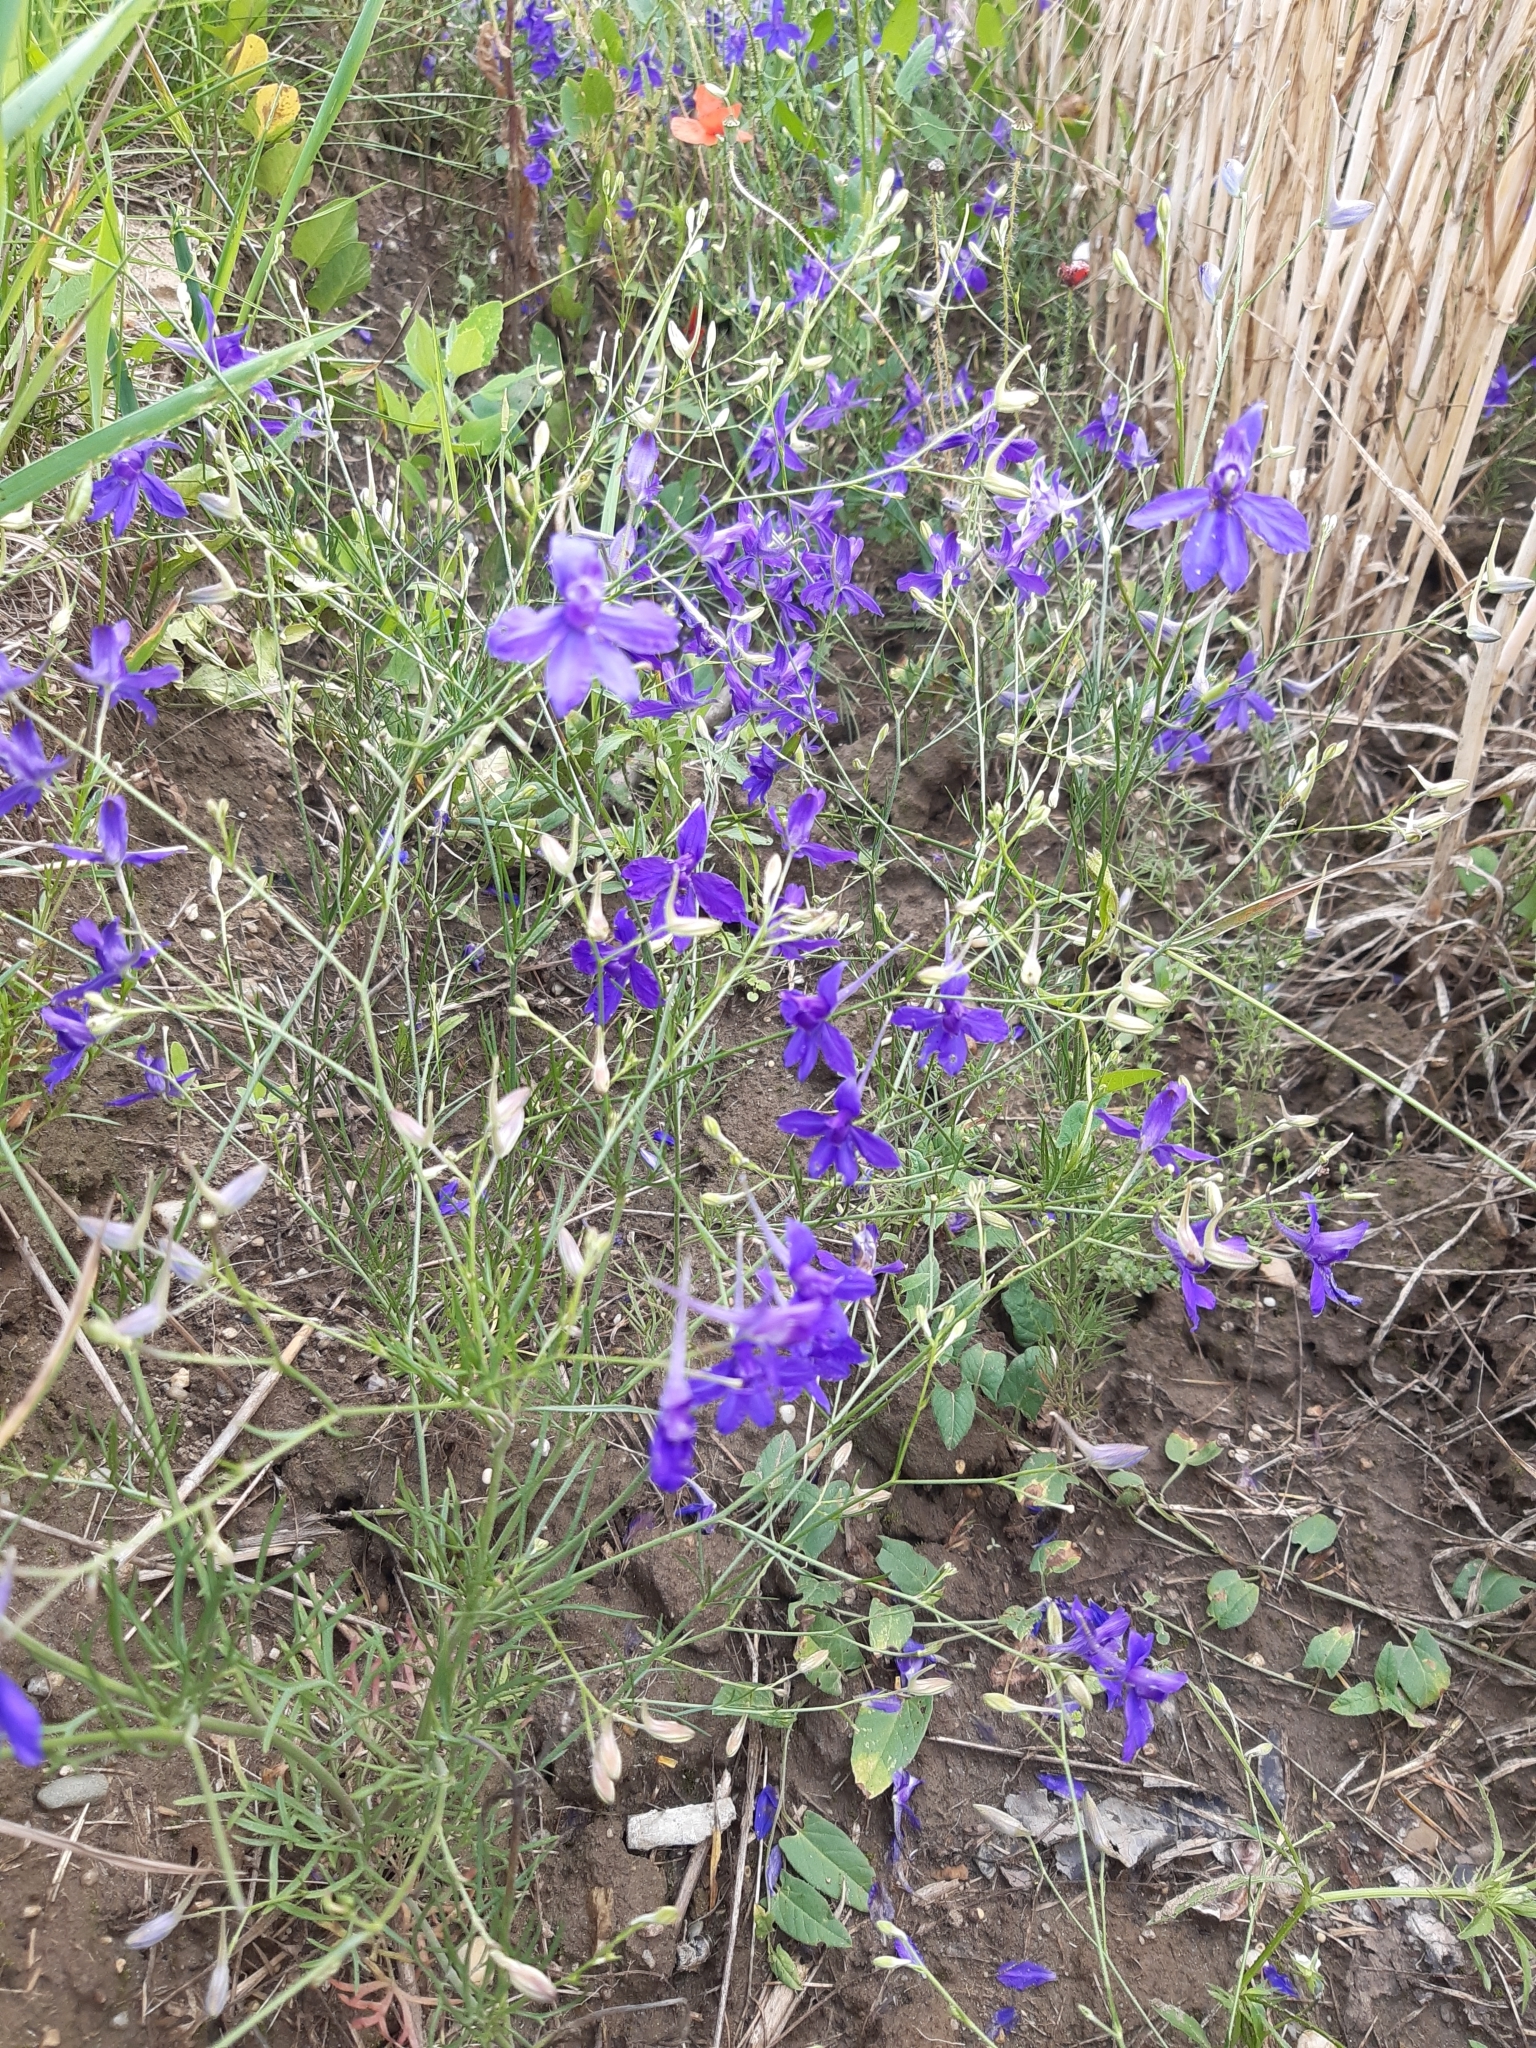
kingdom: Plantae
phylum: Tracheophyta
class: Magnoliopsida
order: Ranunculales
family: Ranunculaceae
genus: Delphinium
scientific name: Delphinium consolida
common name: Branching larkspur
